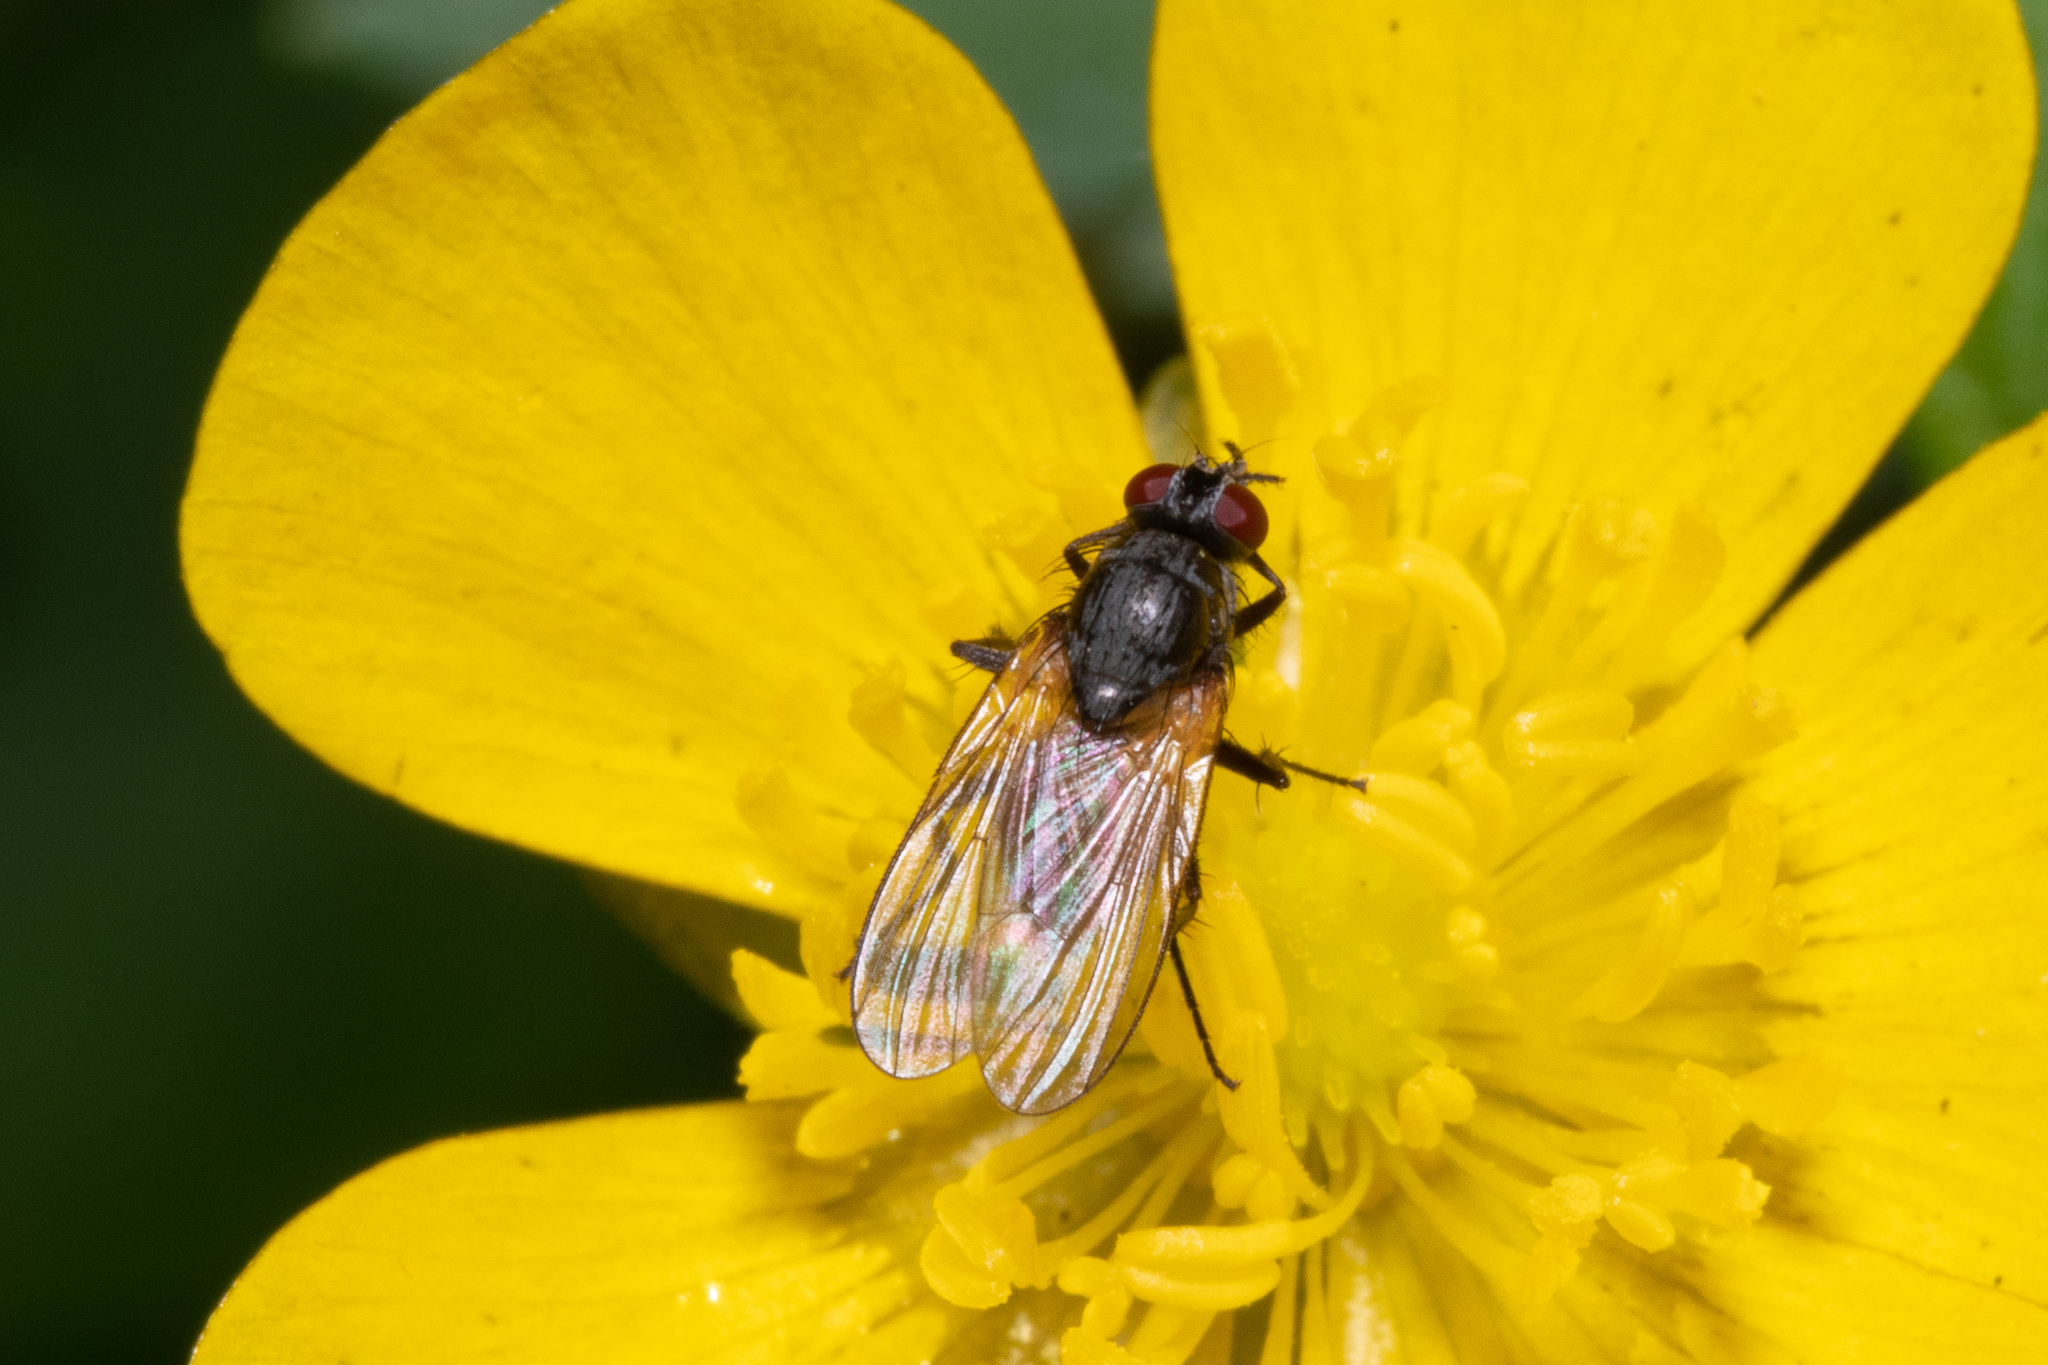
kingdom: Animalia
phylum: Arthropoda
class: Insecta
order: Diptera
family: Muscidae
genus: Thricops
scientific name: Thricops semicinereus
